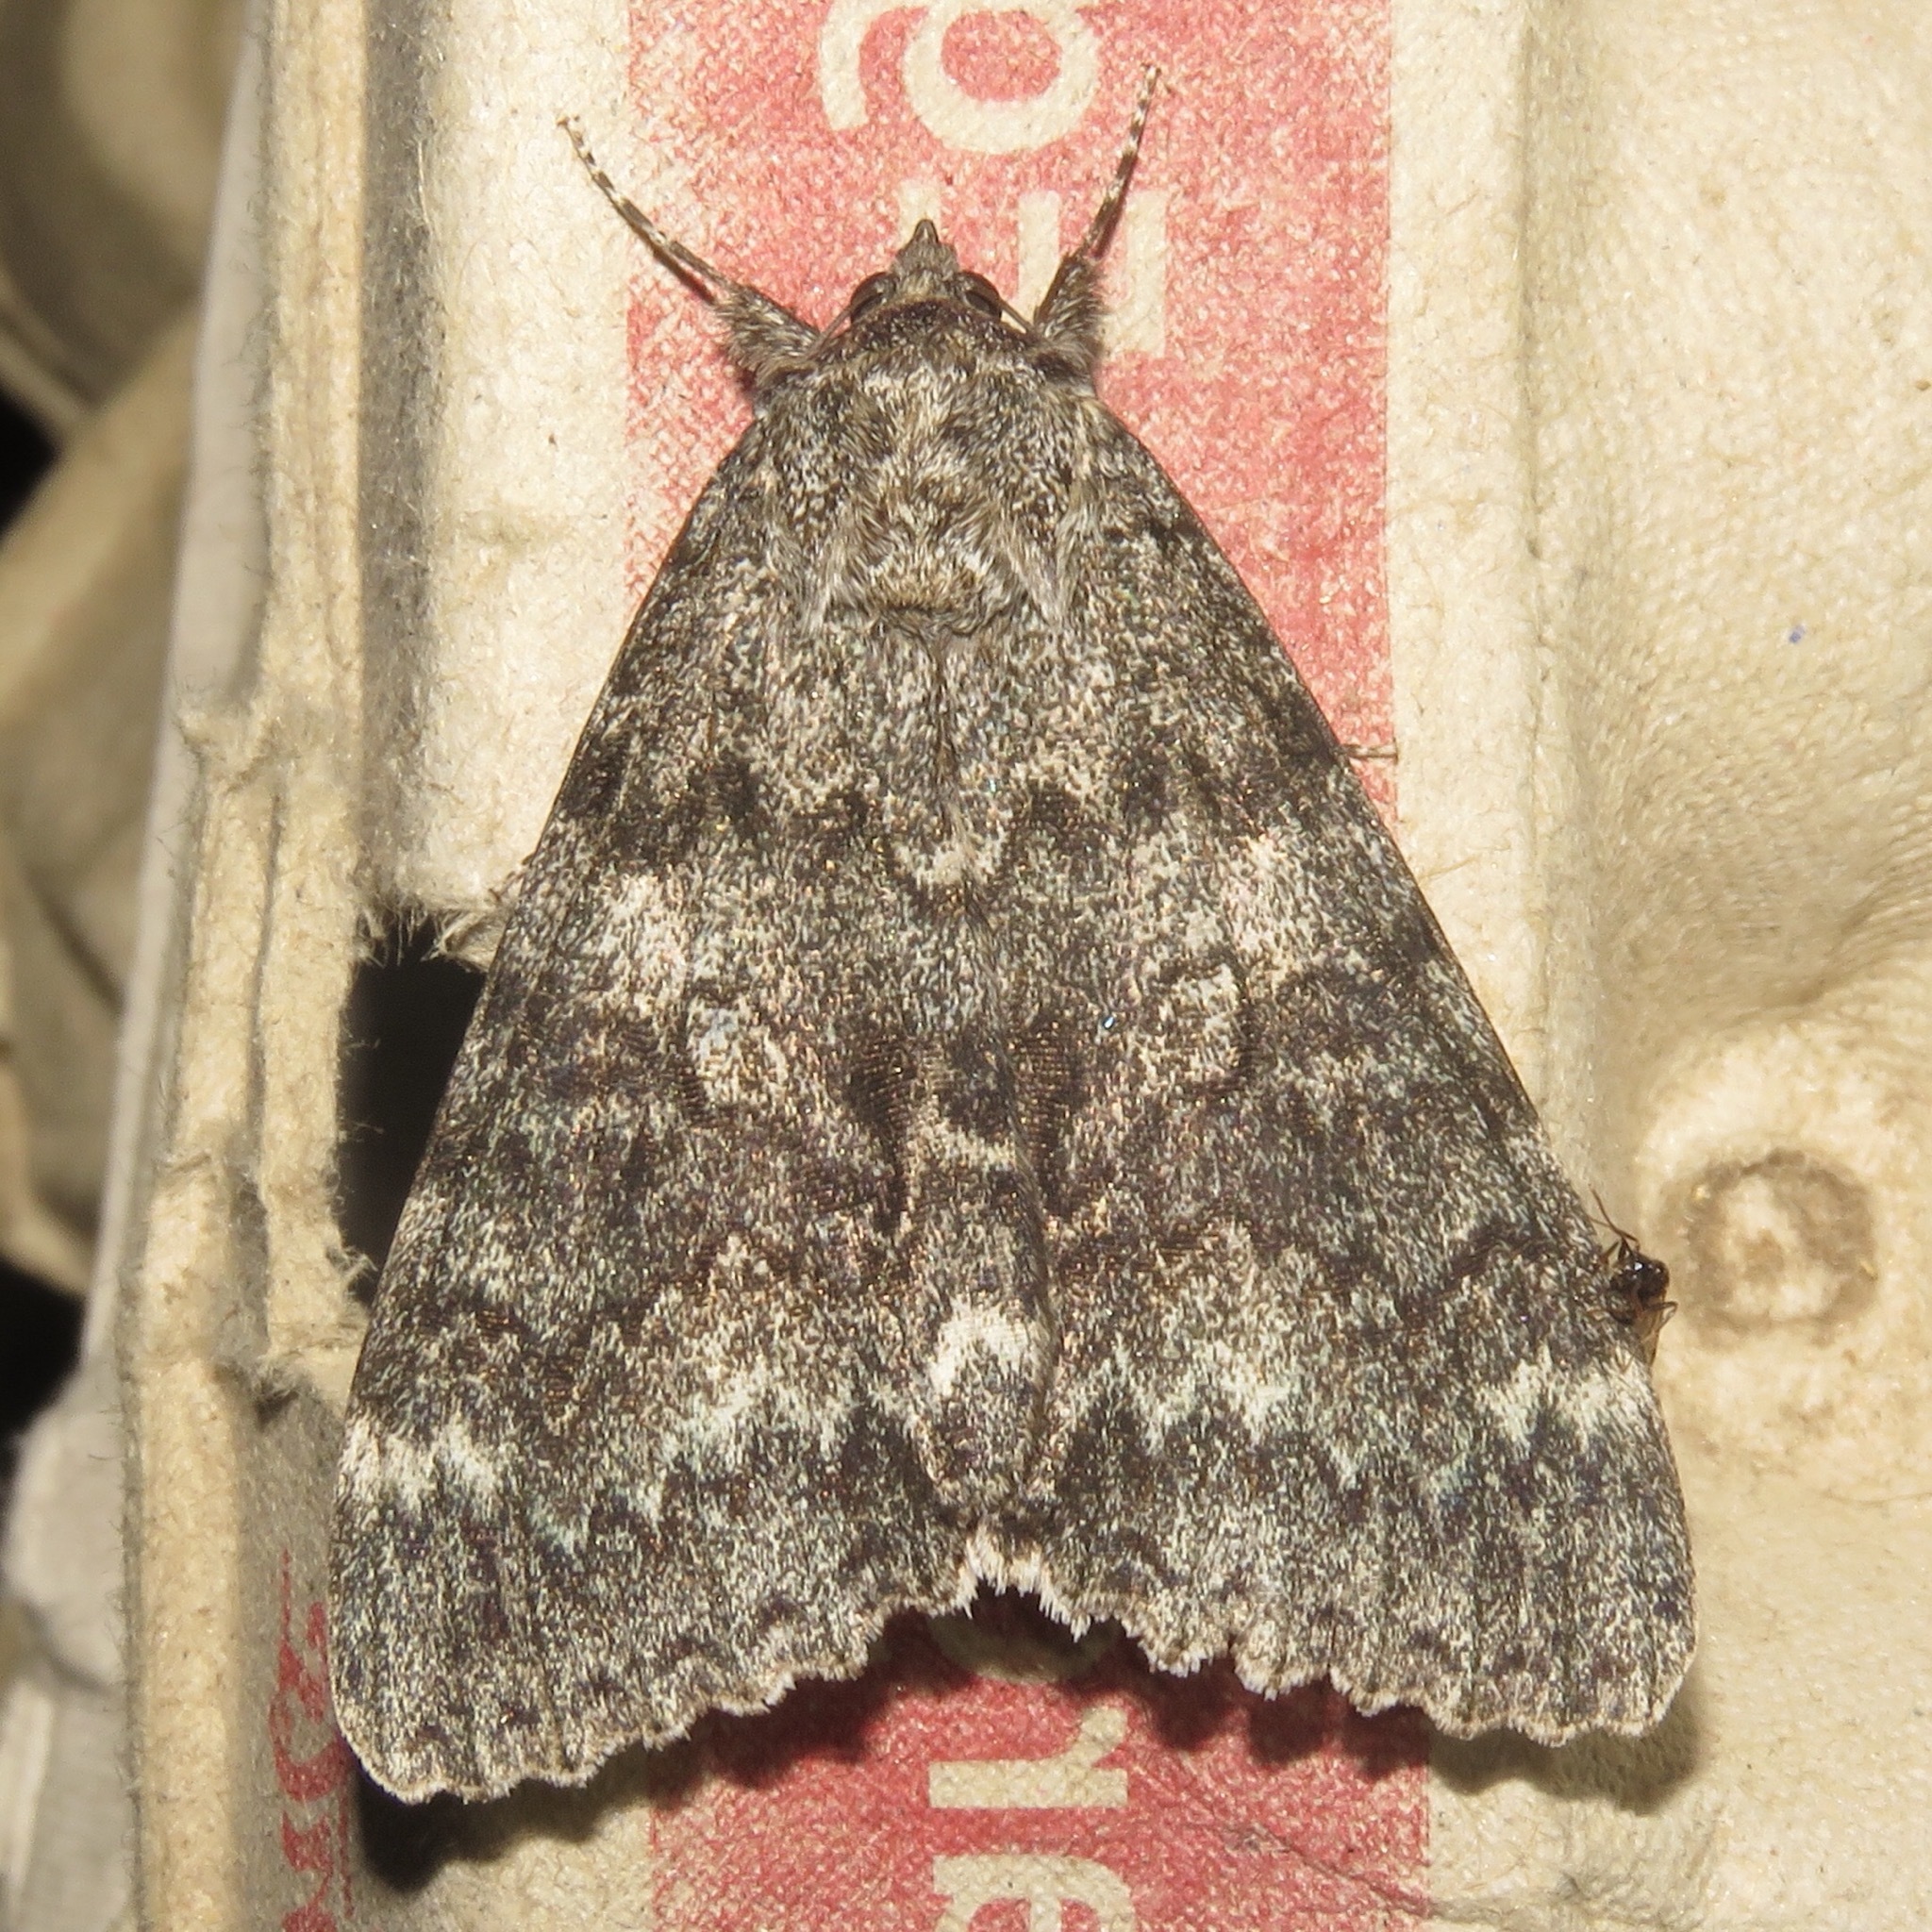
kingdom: Animalia
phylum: Arthropoda
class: Insecta
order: Lepidoptera
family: Erebidae
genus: Catocala
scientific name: Catocala unijuga
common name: Once-married underwing
